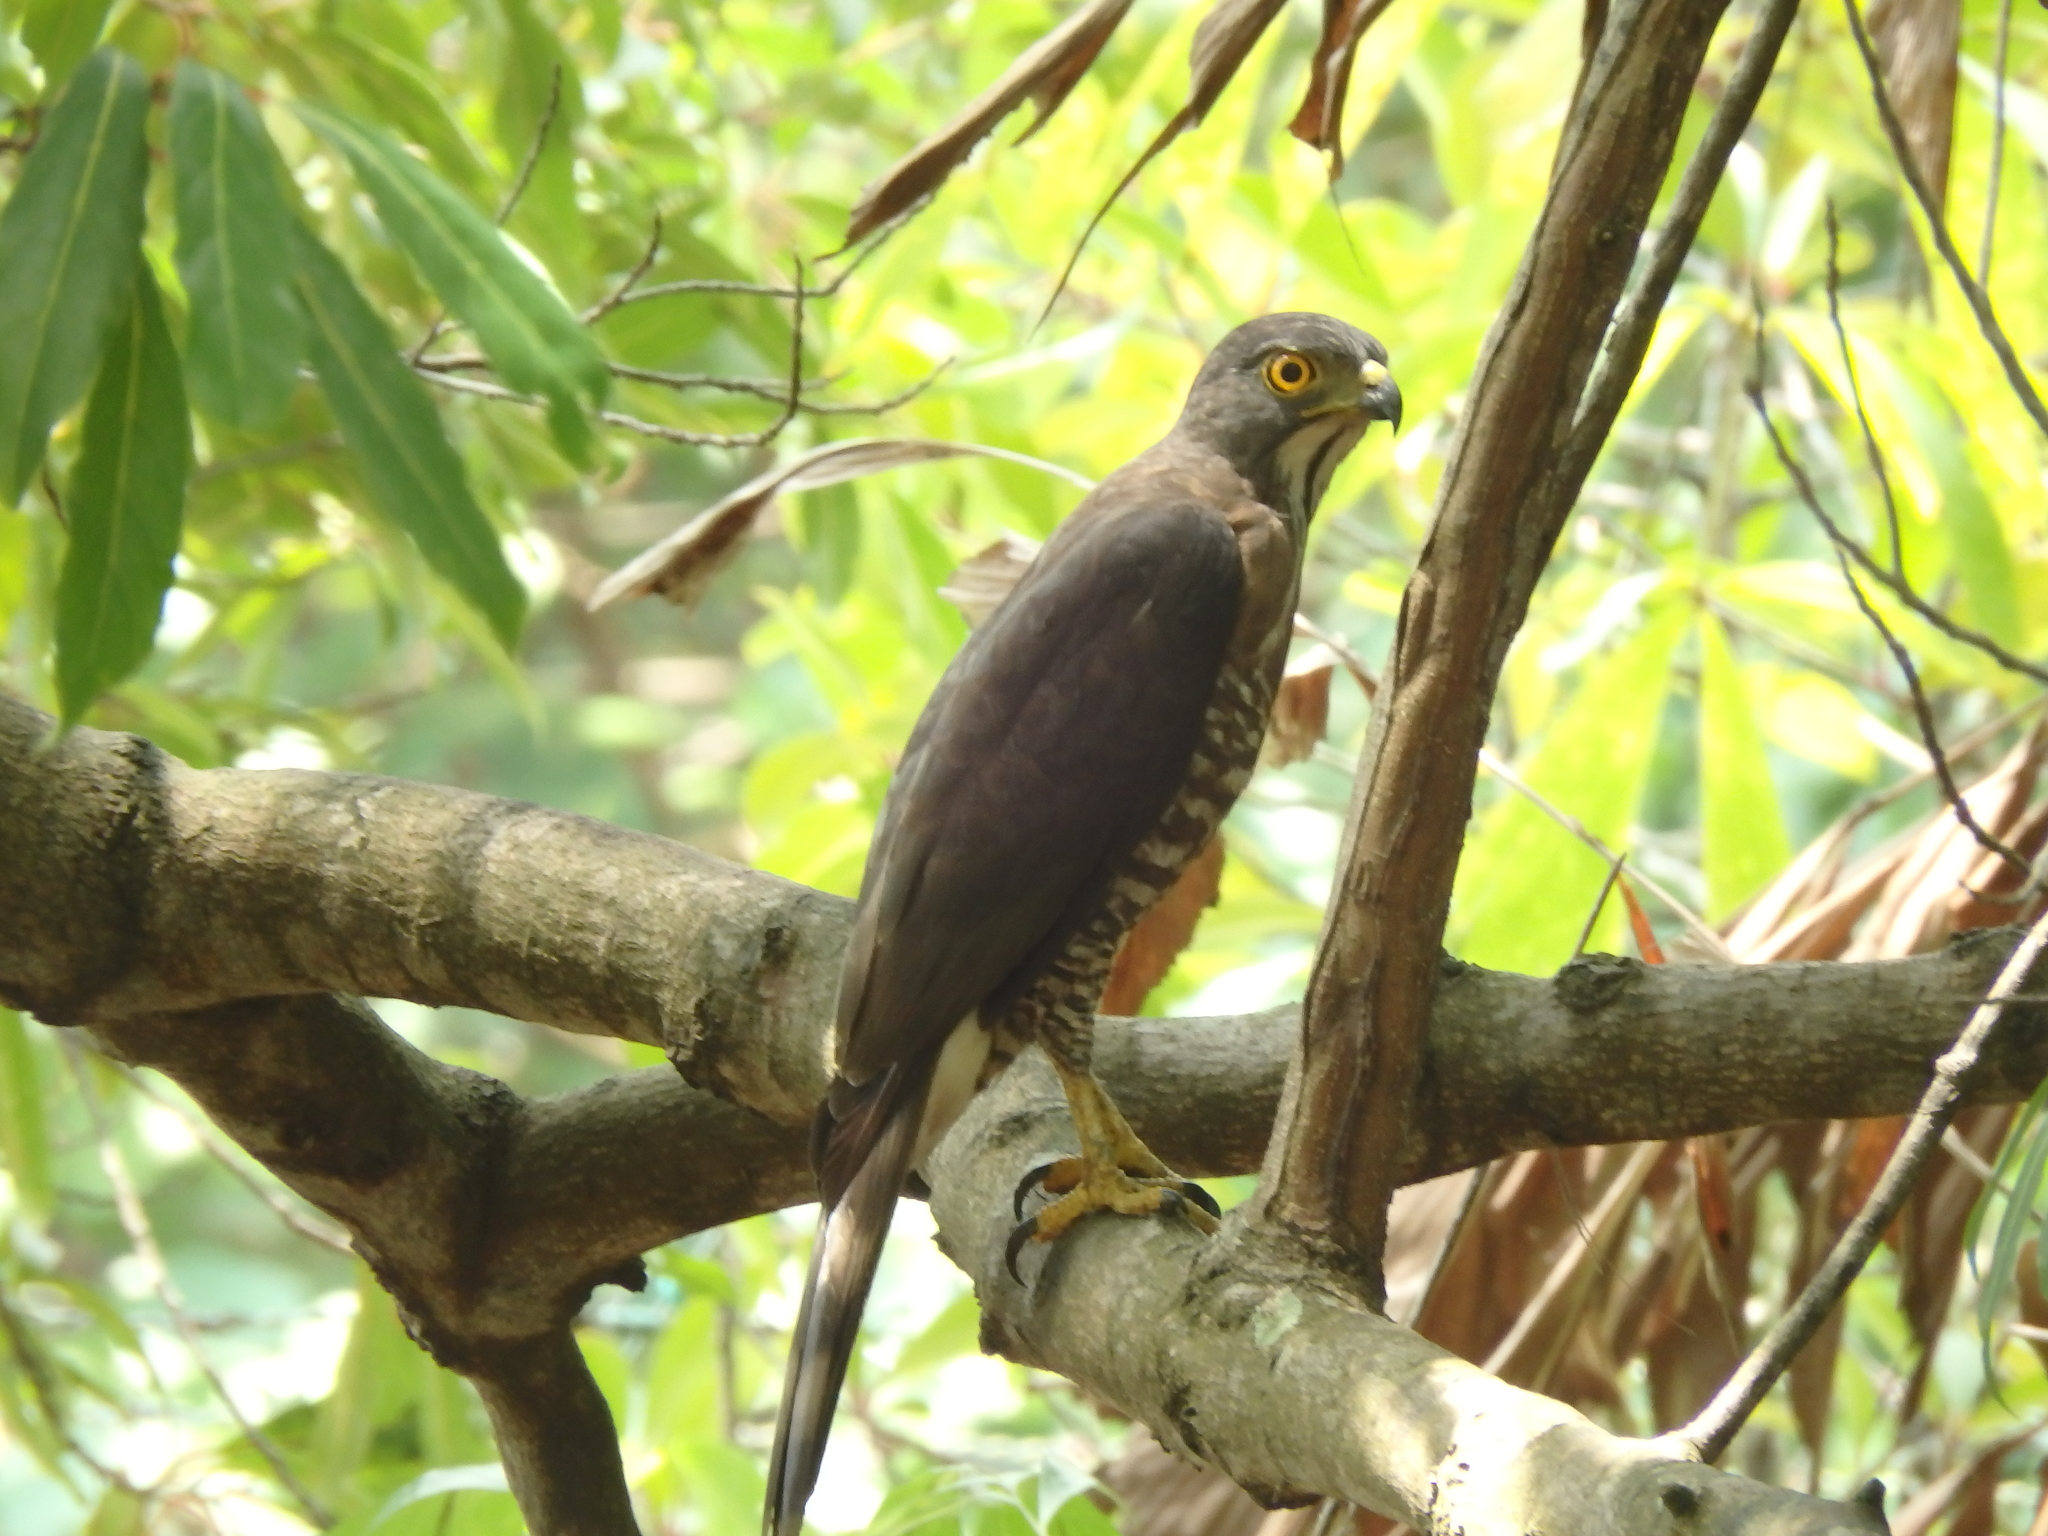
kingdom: Animalia
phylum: Chordata
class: Aves
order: Accipitriformes
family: Accipitridae
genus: Accipiter
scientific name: Accipiter trivirgatus
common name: Crested goshawk
